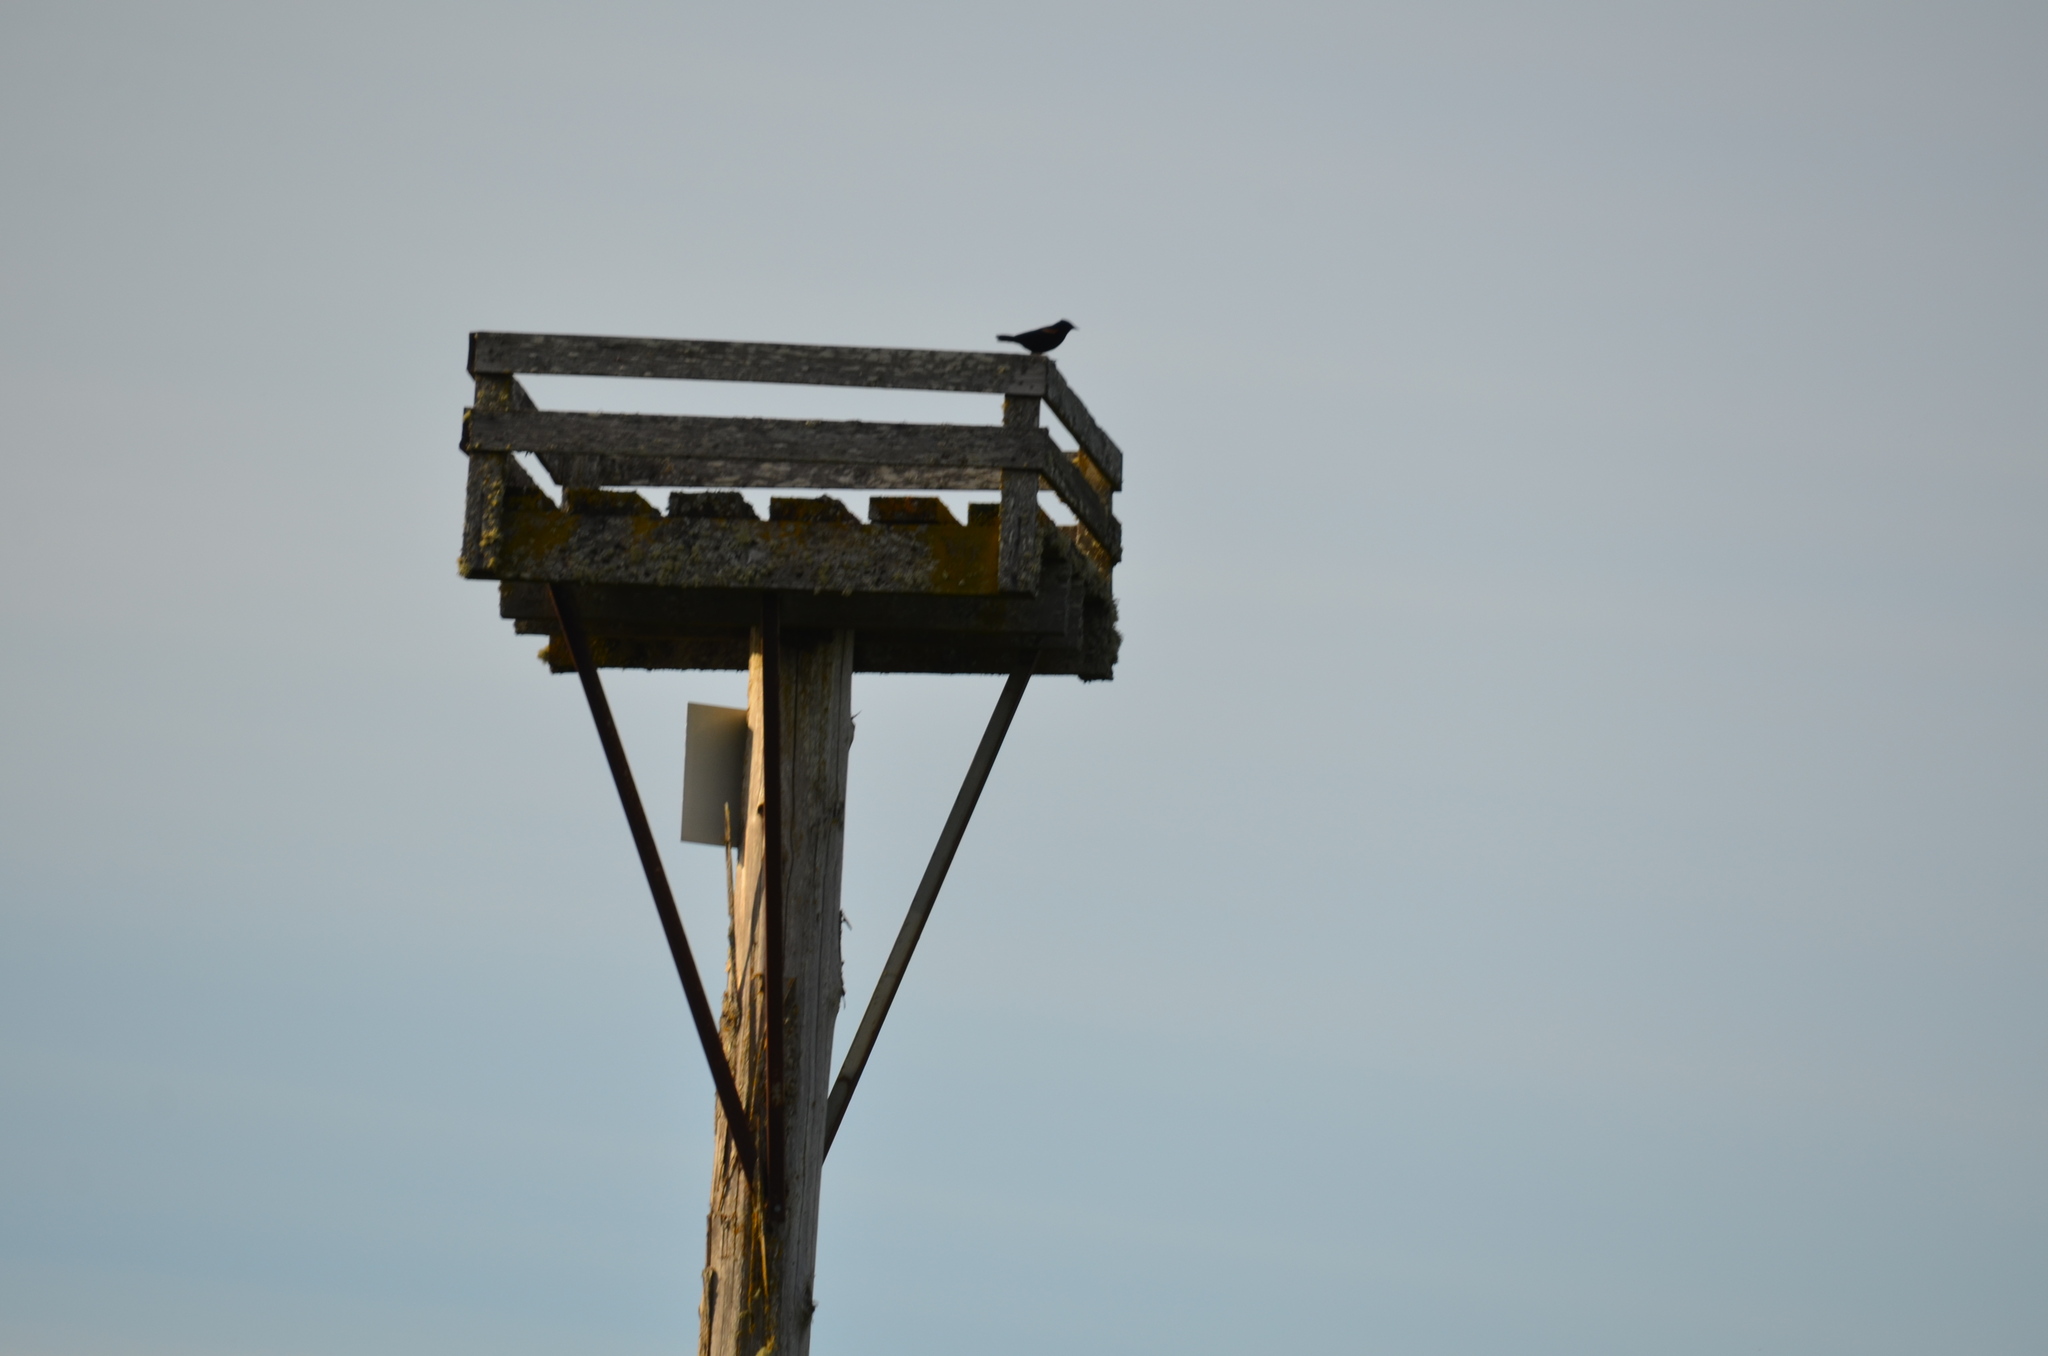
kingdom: Animalia
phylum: Chordata
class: Aves
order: Passeriformes
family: Icteridae
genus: Agelaius
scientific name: Agelaius phoeniceus
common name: Red-winged blackbird
